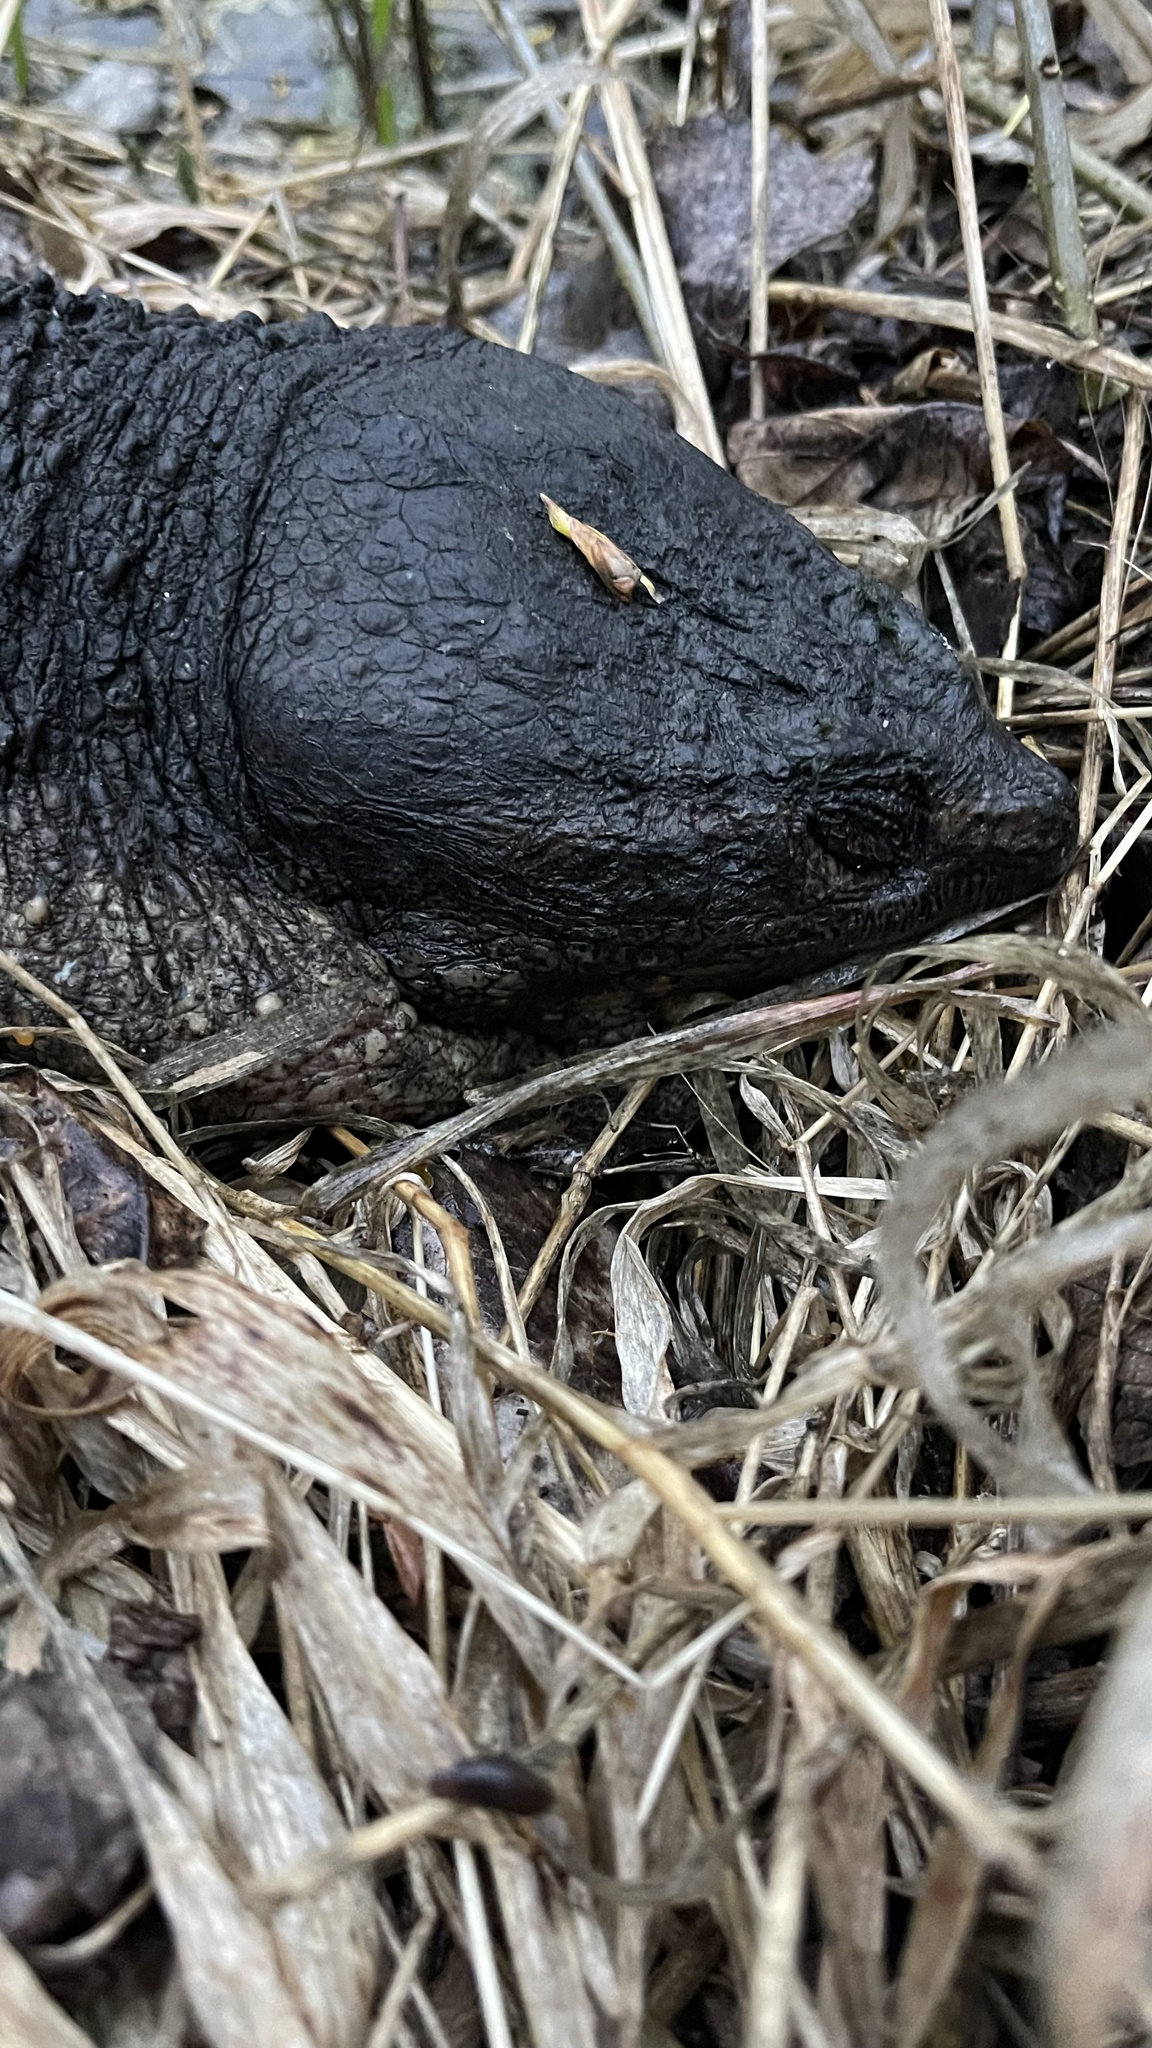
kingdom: Animalia
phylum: Chordata
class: Testudines
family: Chelydridae
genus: Chelydra
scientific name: Chelydra serpentina
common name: Common snapping turtle
